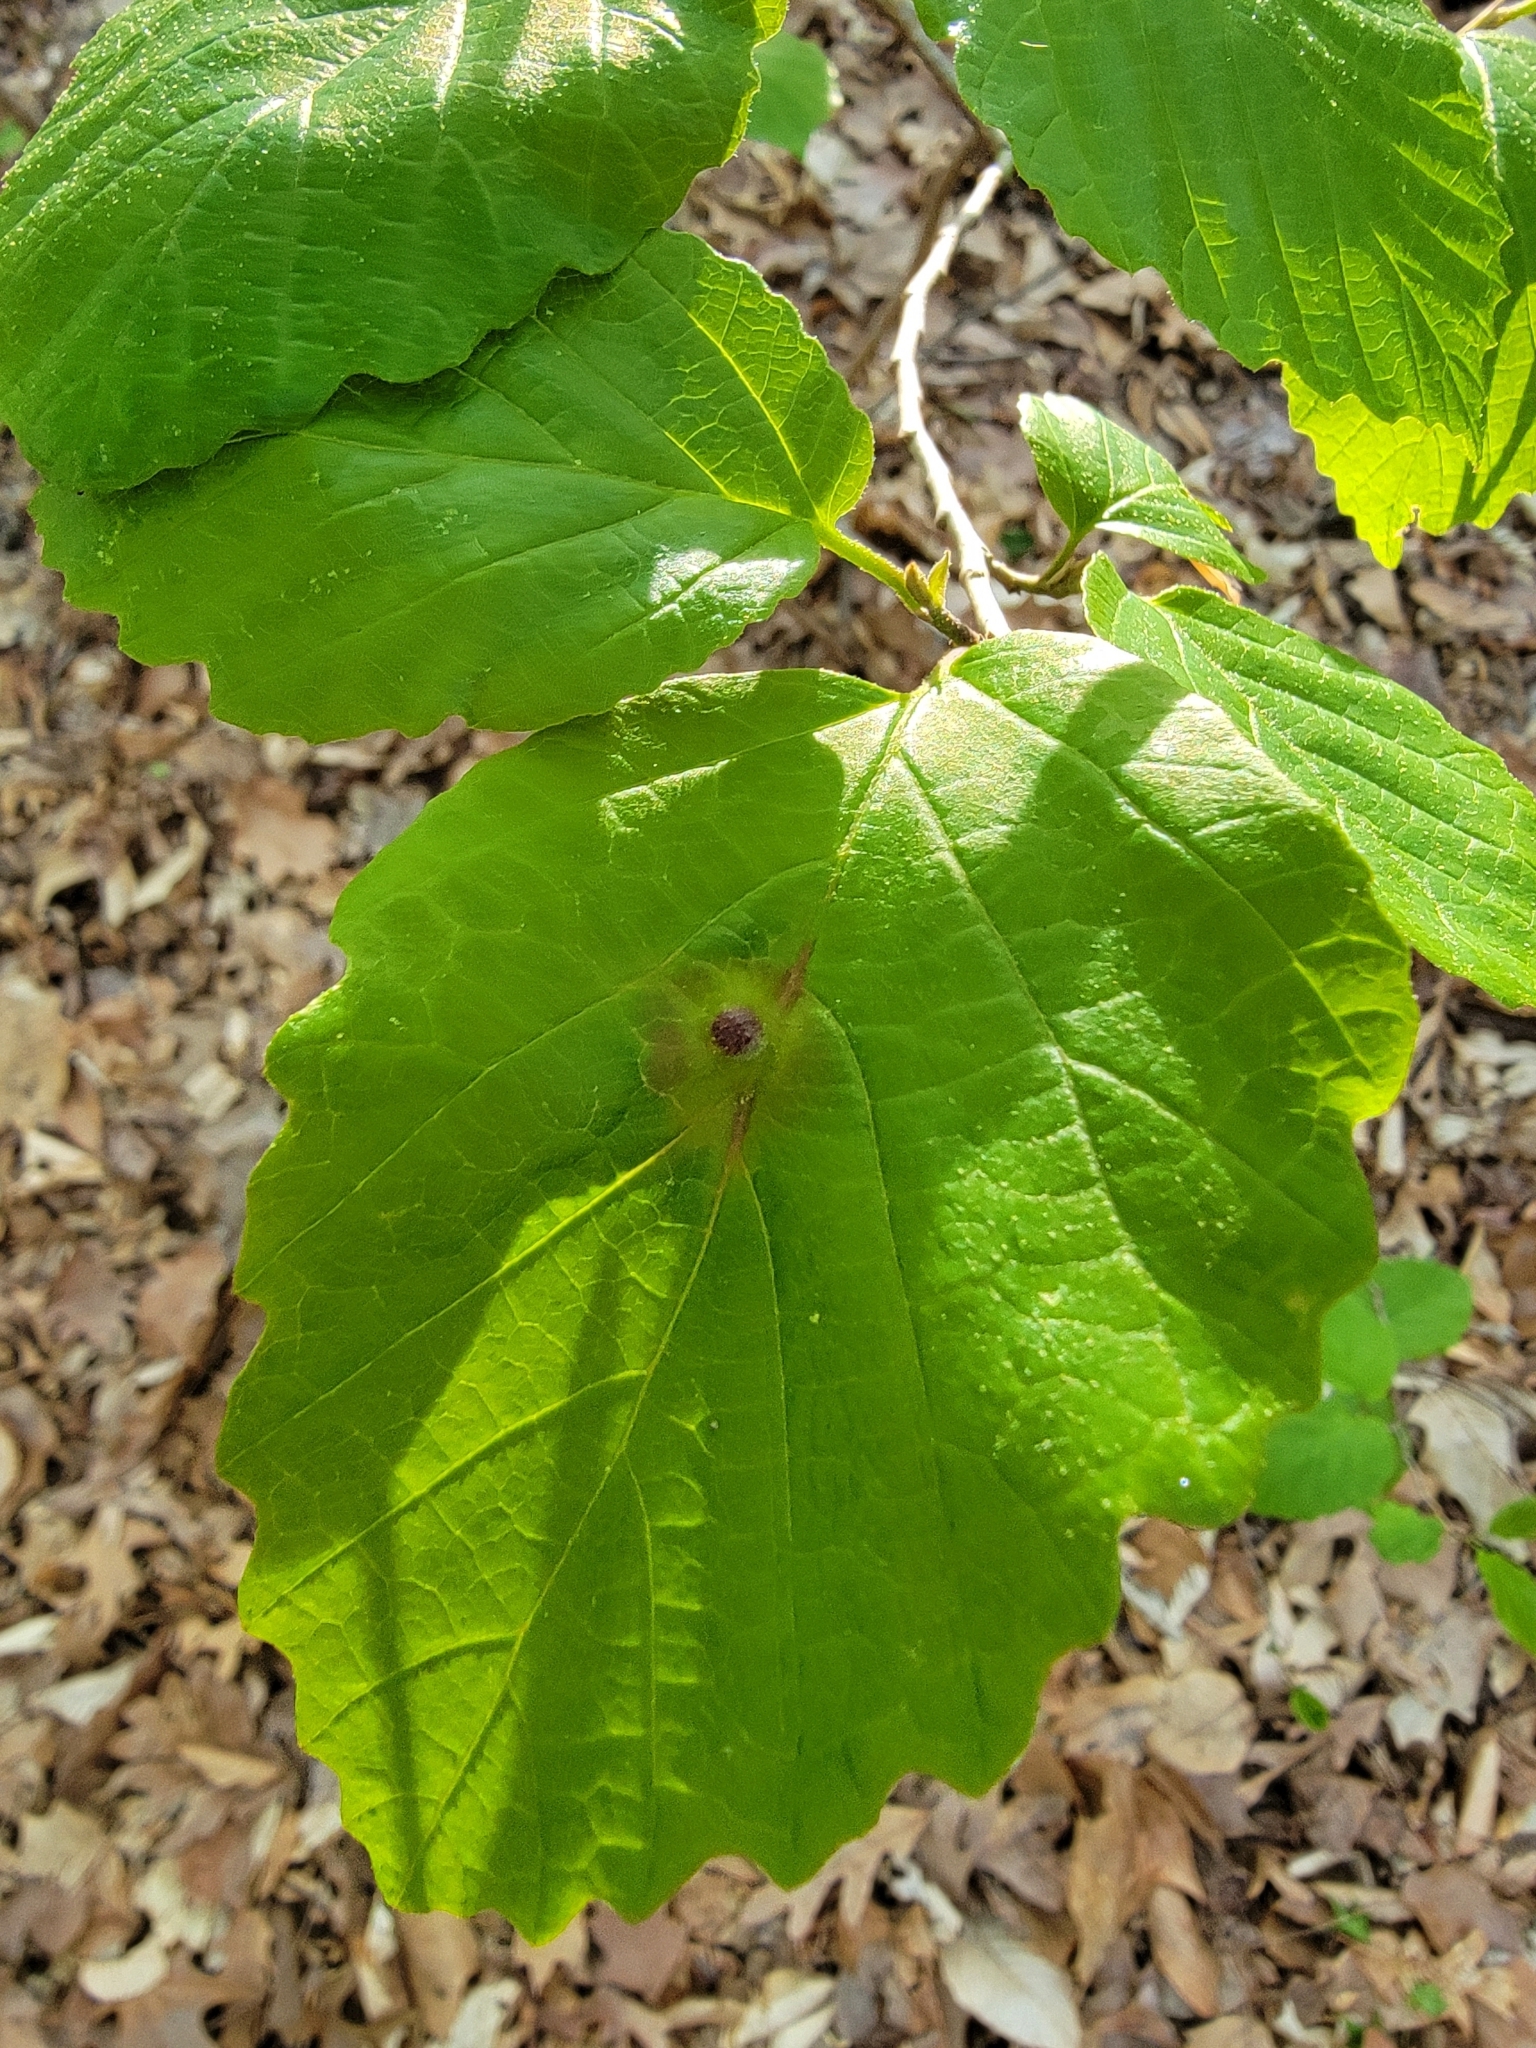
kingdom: Animalia
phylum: Arthropoda
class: Insecta
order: Hemiptera
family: Aphididae
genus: Hormaphis
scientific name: Hormaphis hamamelidis
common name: Witch-hazel cone gall aphid
